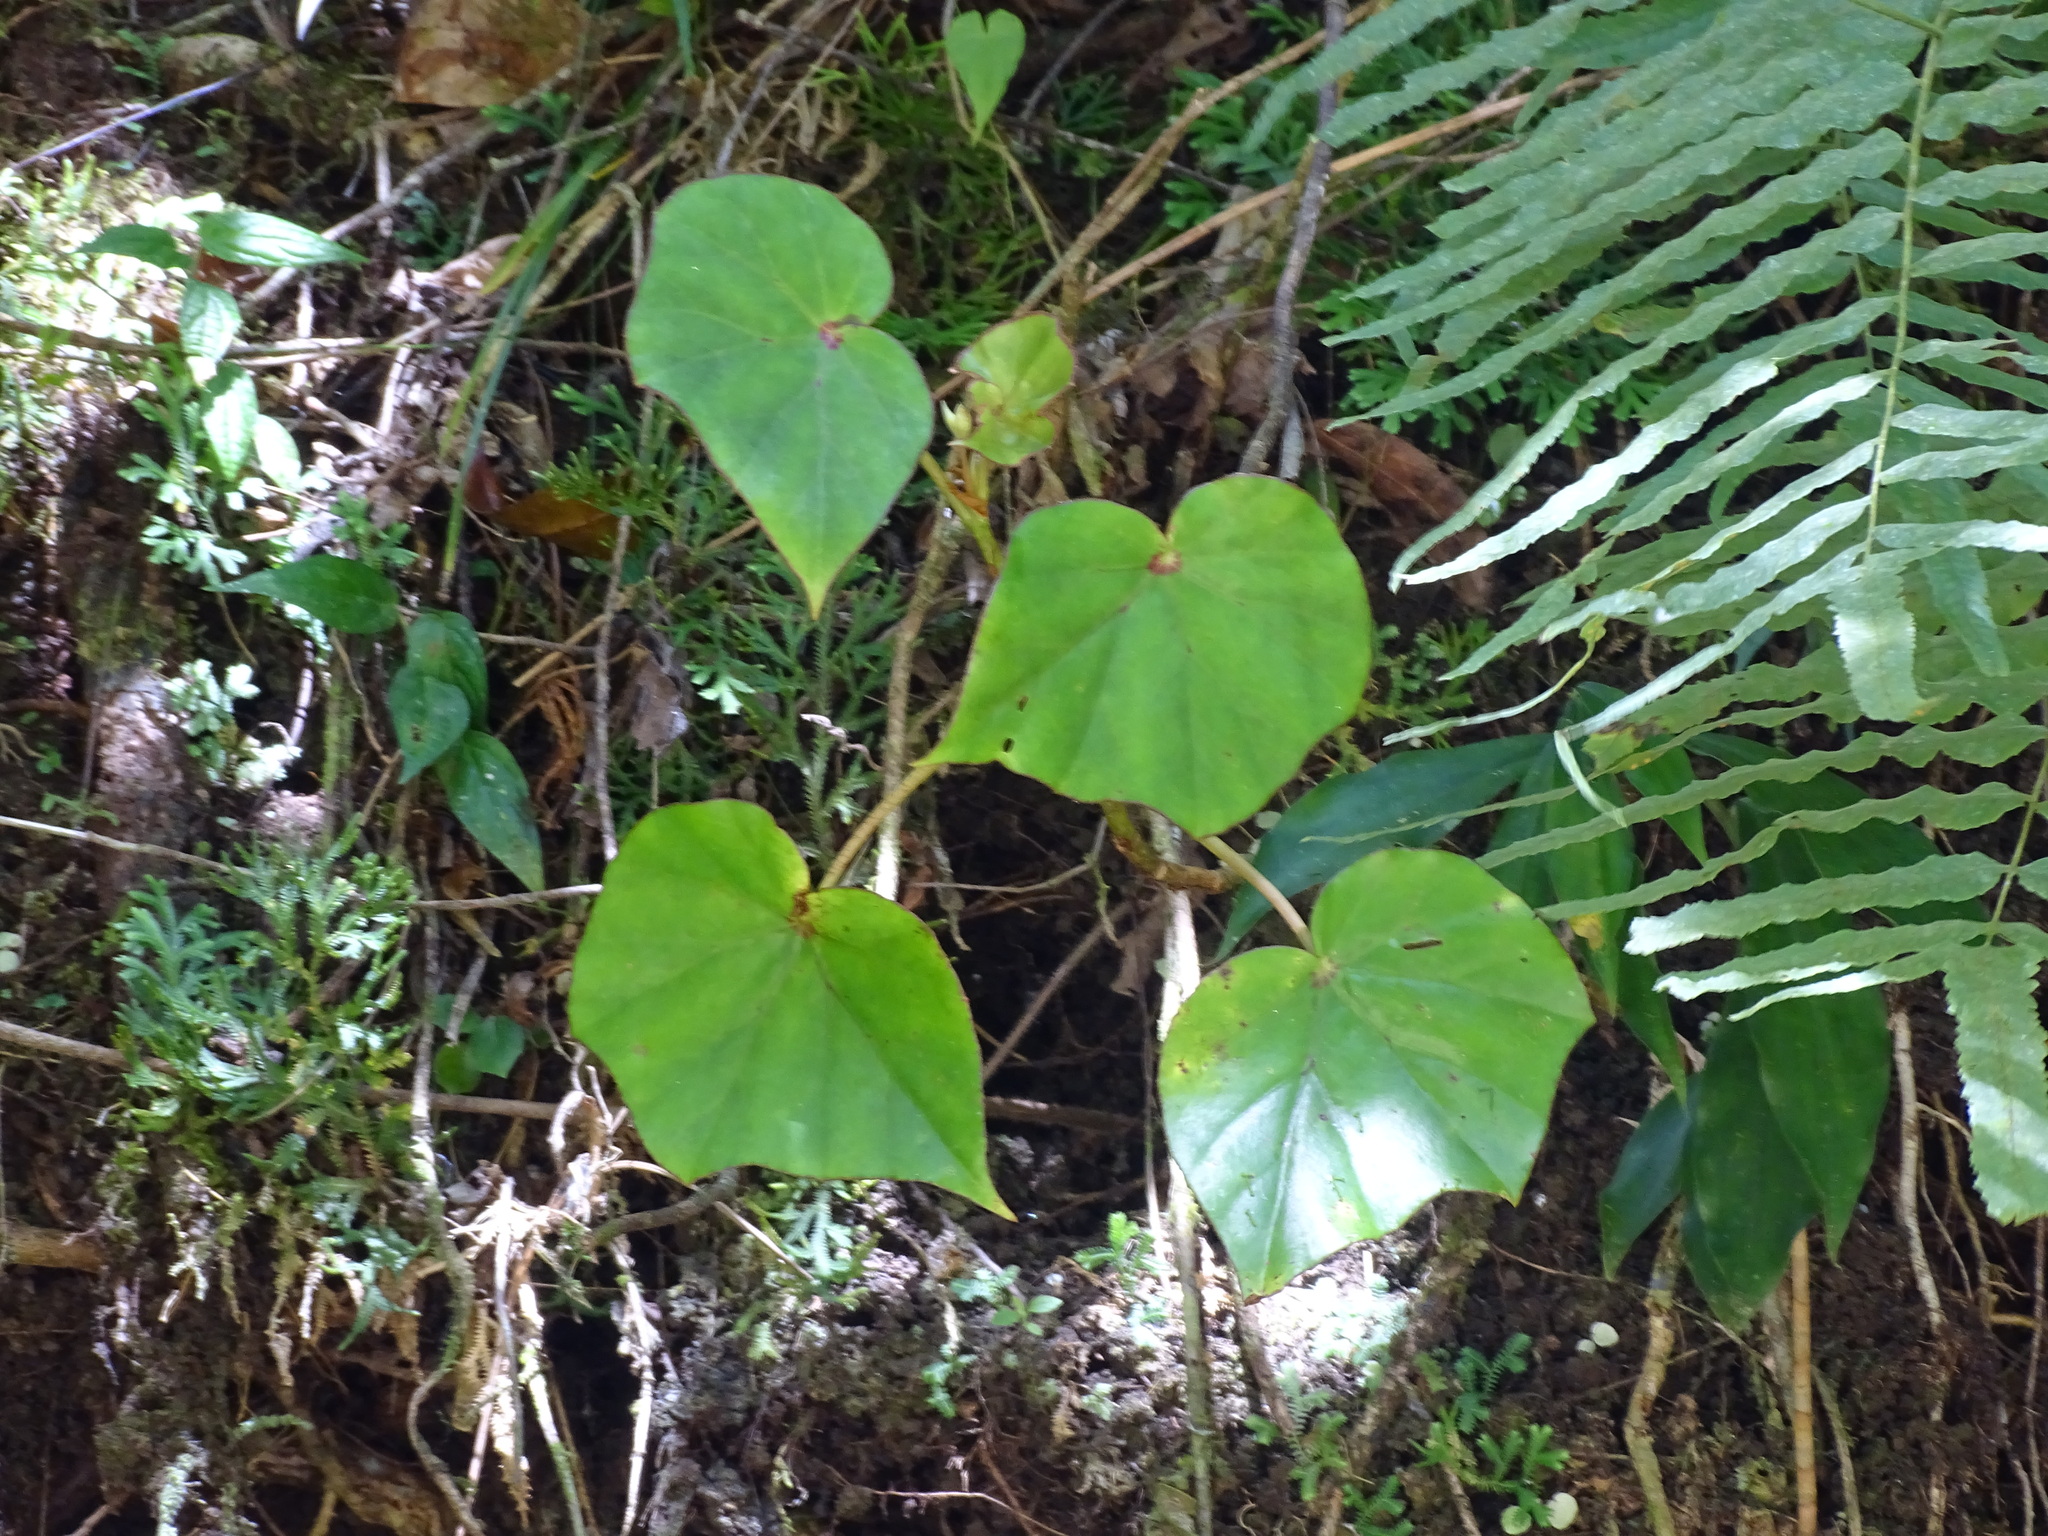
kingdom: Plantae
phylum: Tracheophyta
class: Magnoliopsida
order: Cucurbitales
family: Begoniaceae
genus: Begonia
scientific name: Begonia sartorii
